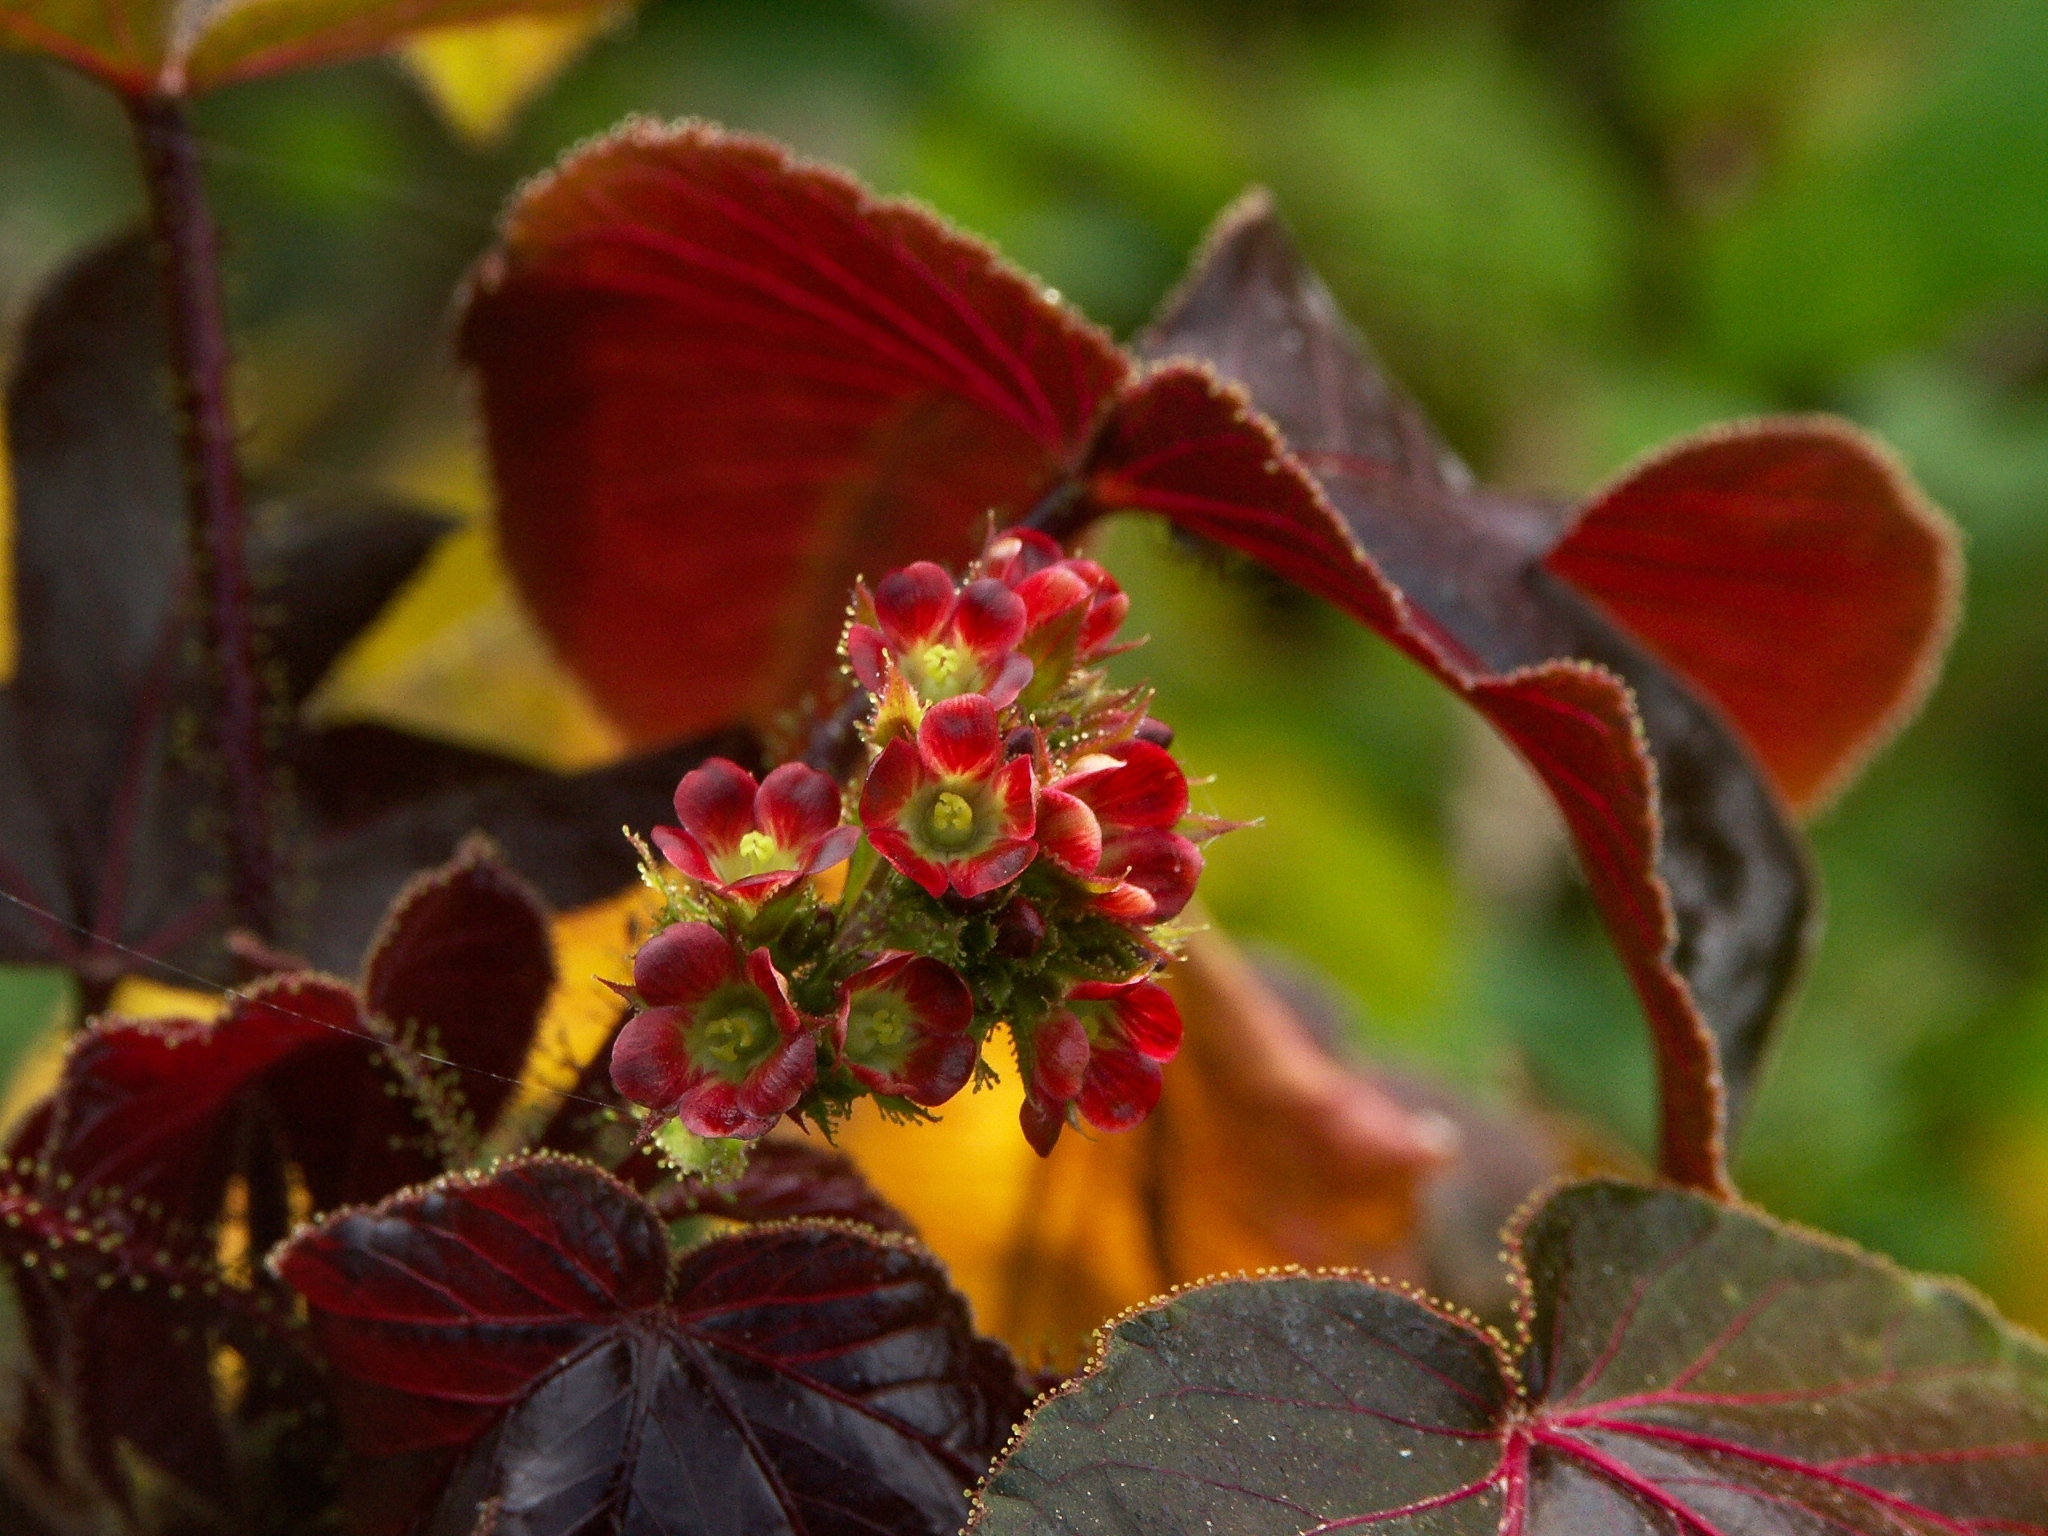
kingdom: Plantae
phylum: Tracheophyta
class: Magnoliopsida
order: Malpighiales
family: Euphorbiaceae
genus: Jatropha
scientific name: Jatropha gossypiifolia
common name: Bellyache bush
